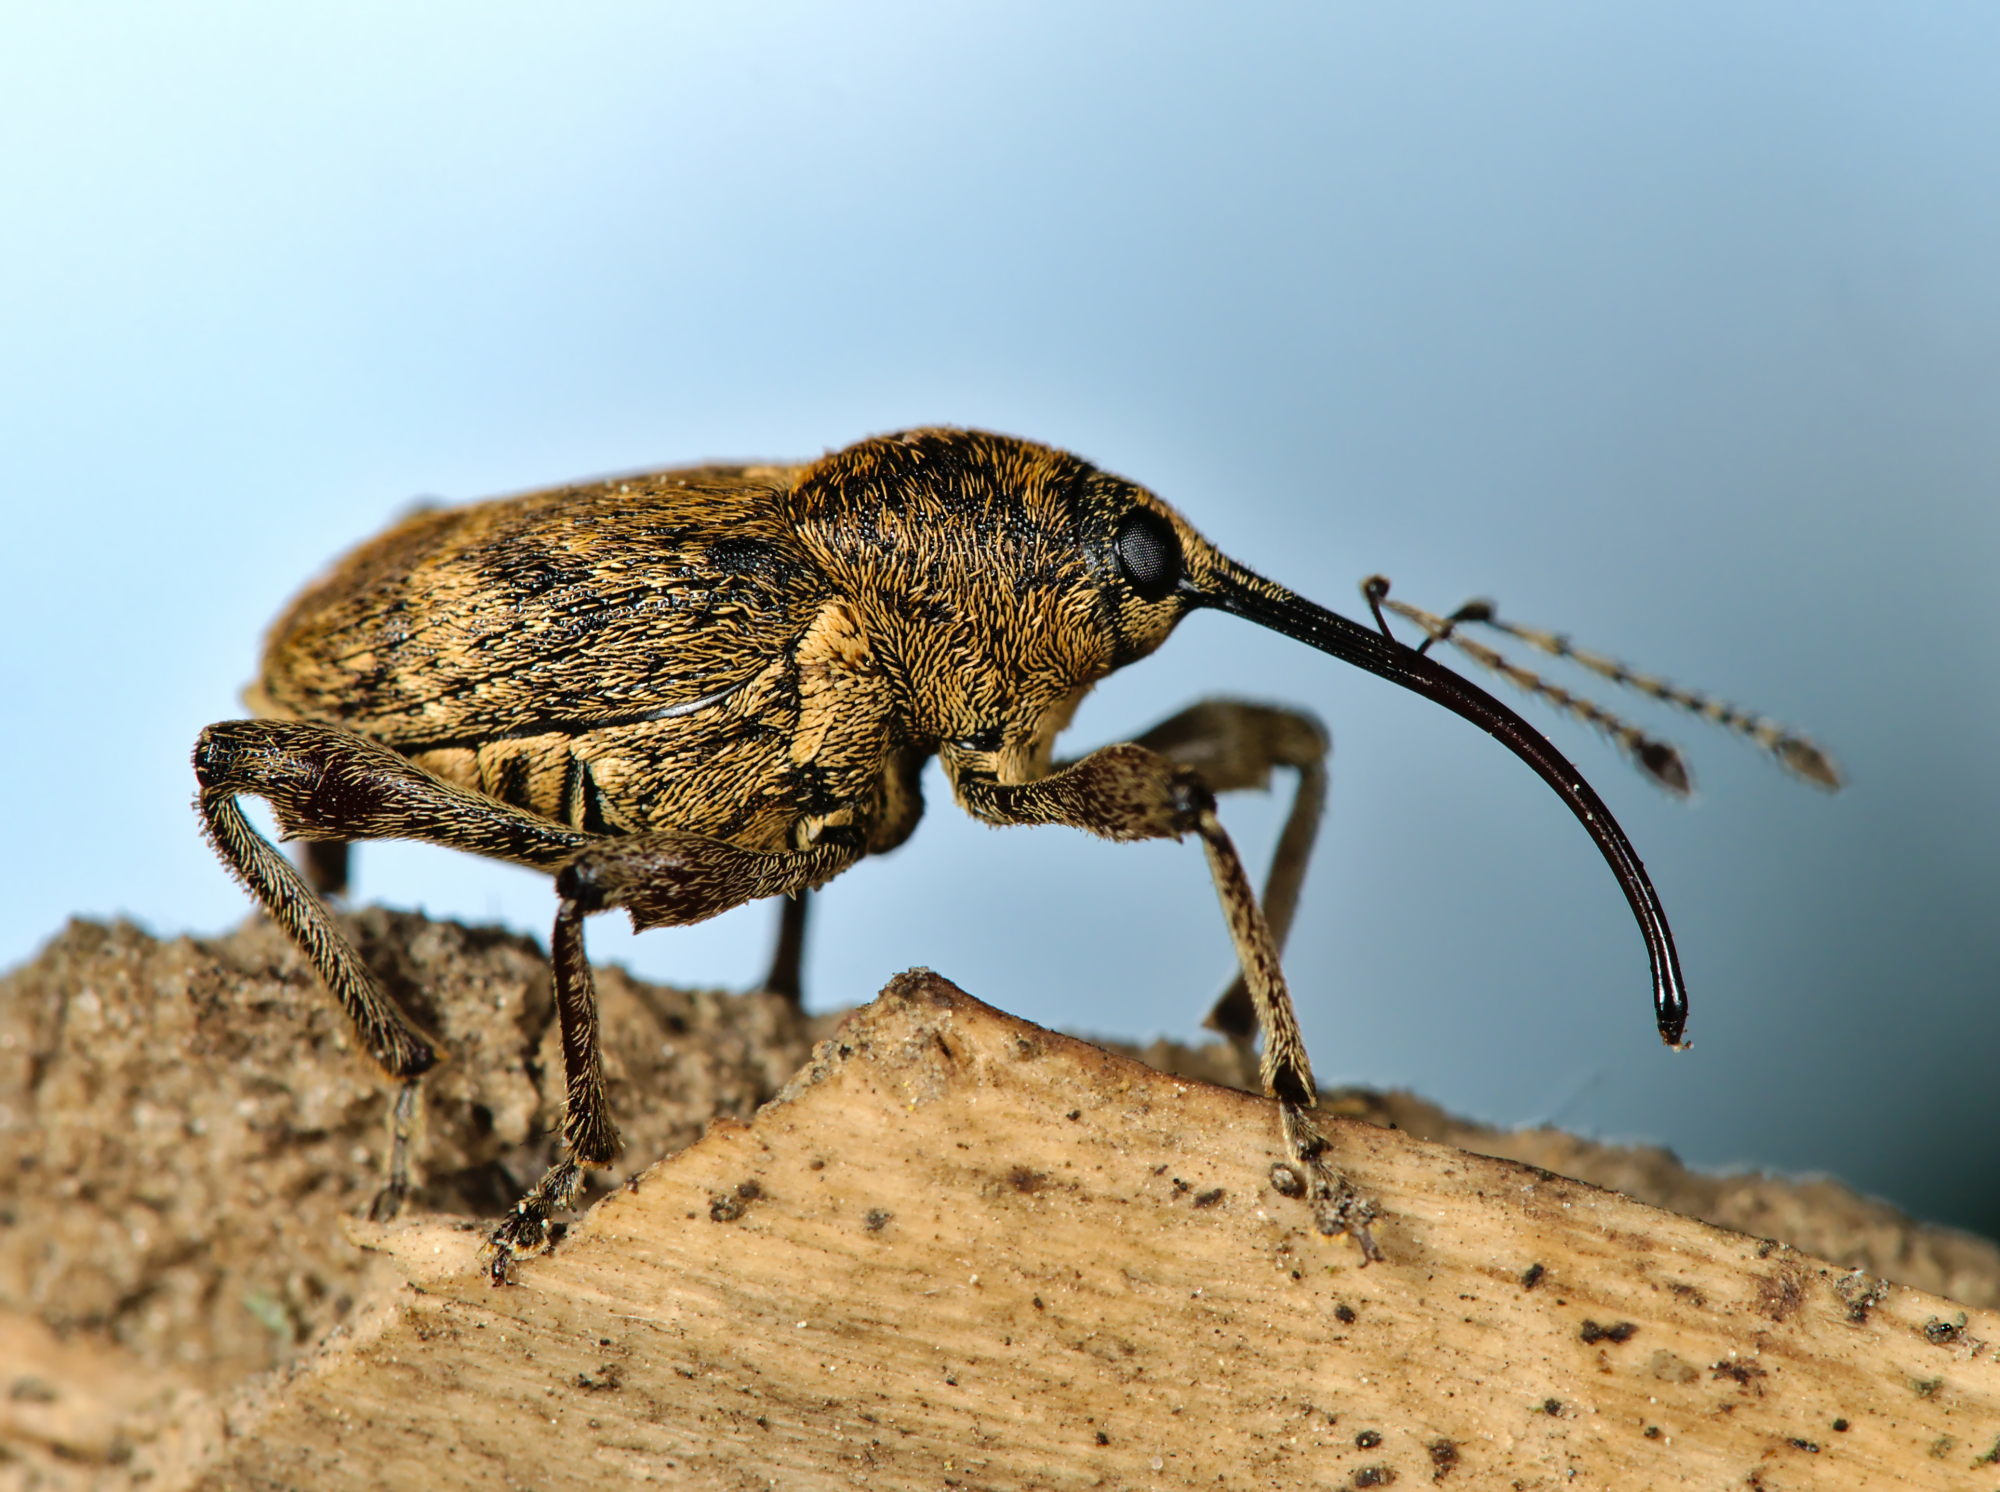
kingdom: Animalia
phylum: Arthropoda
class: Insecta
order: Coleoptera
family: Curculionidae
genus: Curculio
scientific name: Curculio nucum
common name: Nut weevil
